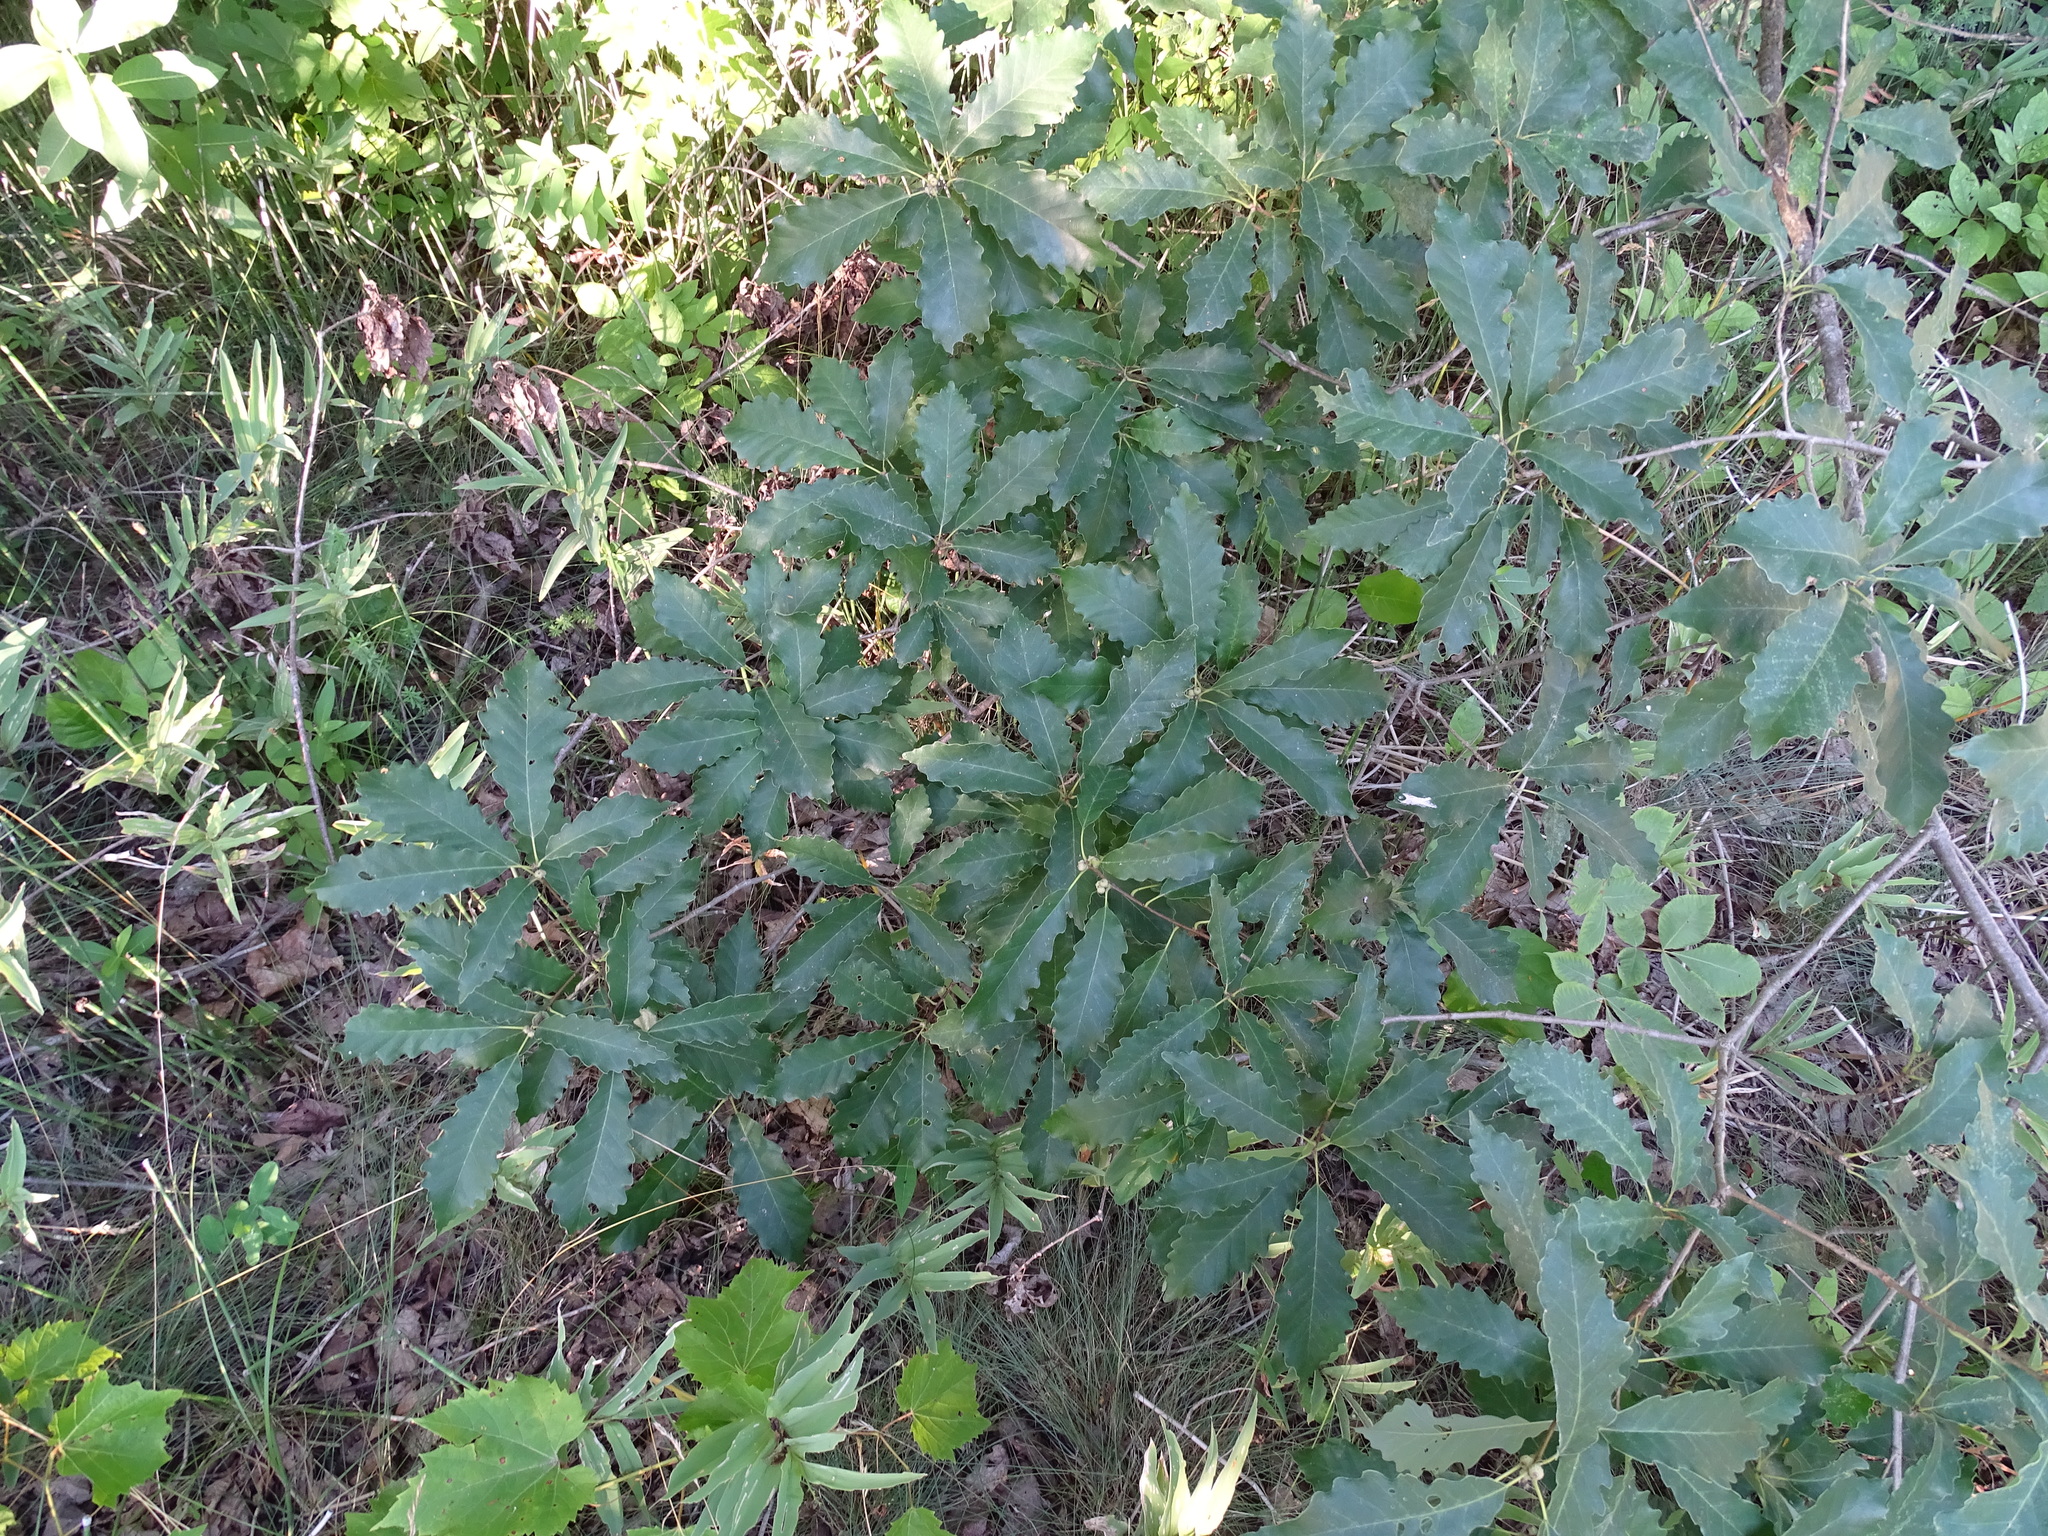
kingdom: Plantae
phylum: Tracheophyta
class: Magnoliopsida
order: Fagales
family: Fagaceae
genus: Quercus
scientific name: Quercus muehlenbergii
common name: Chinkapin oak
